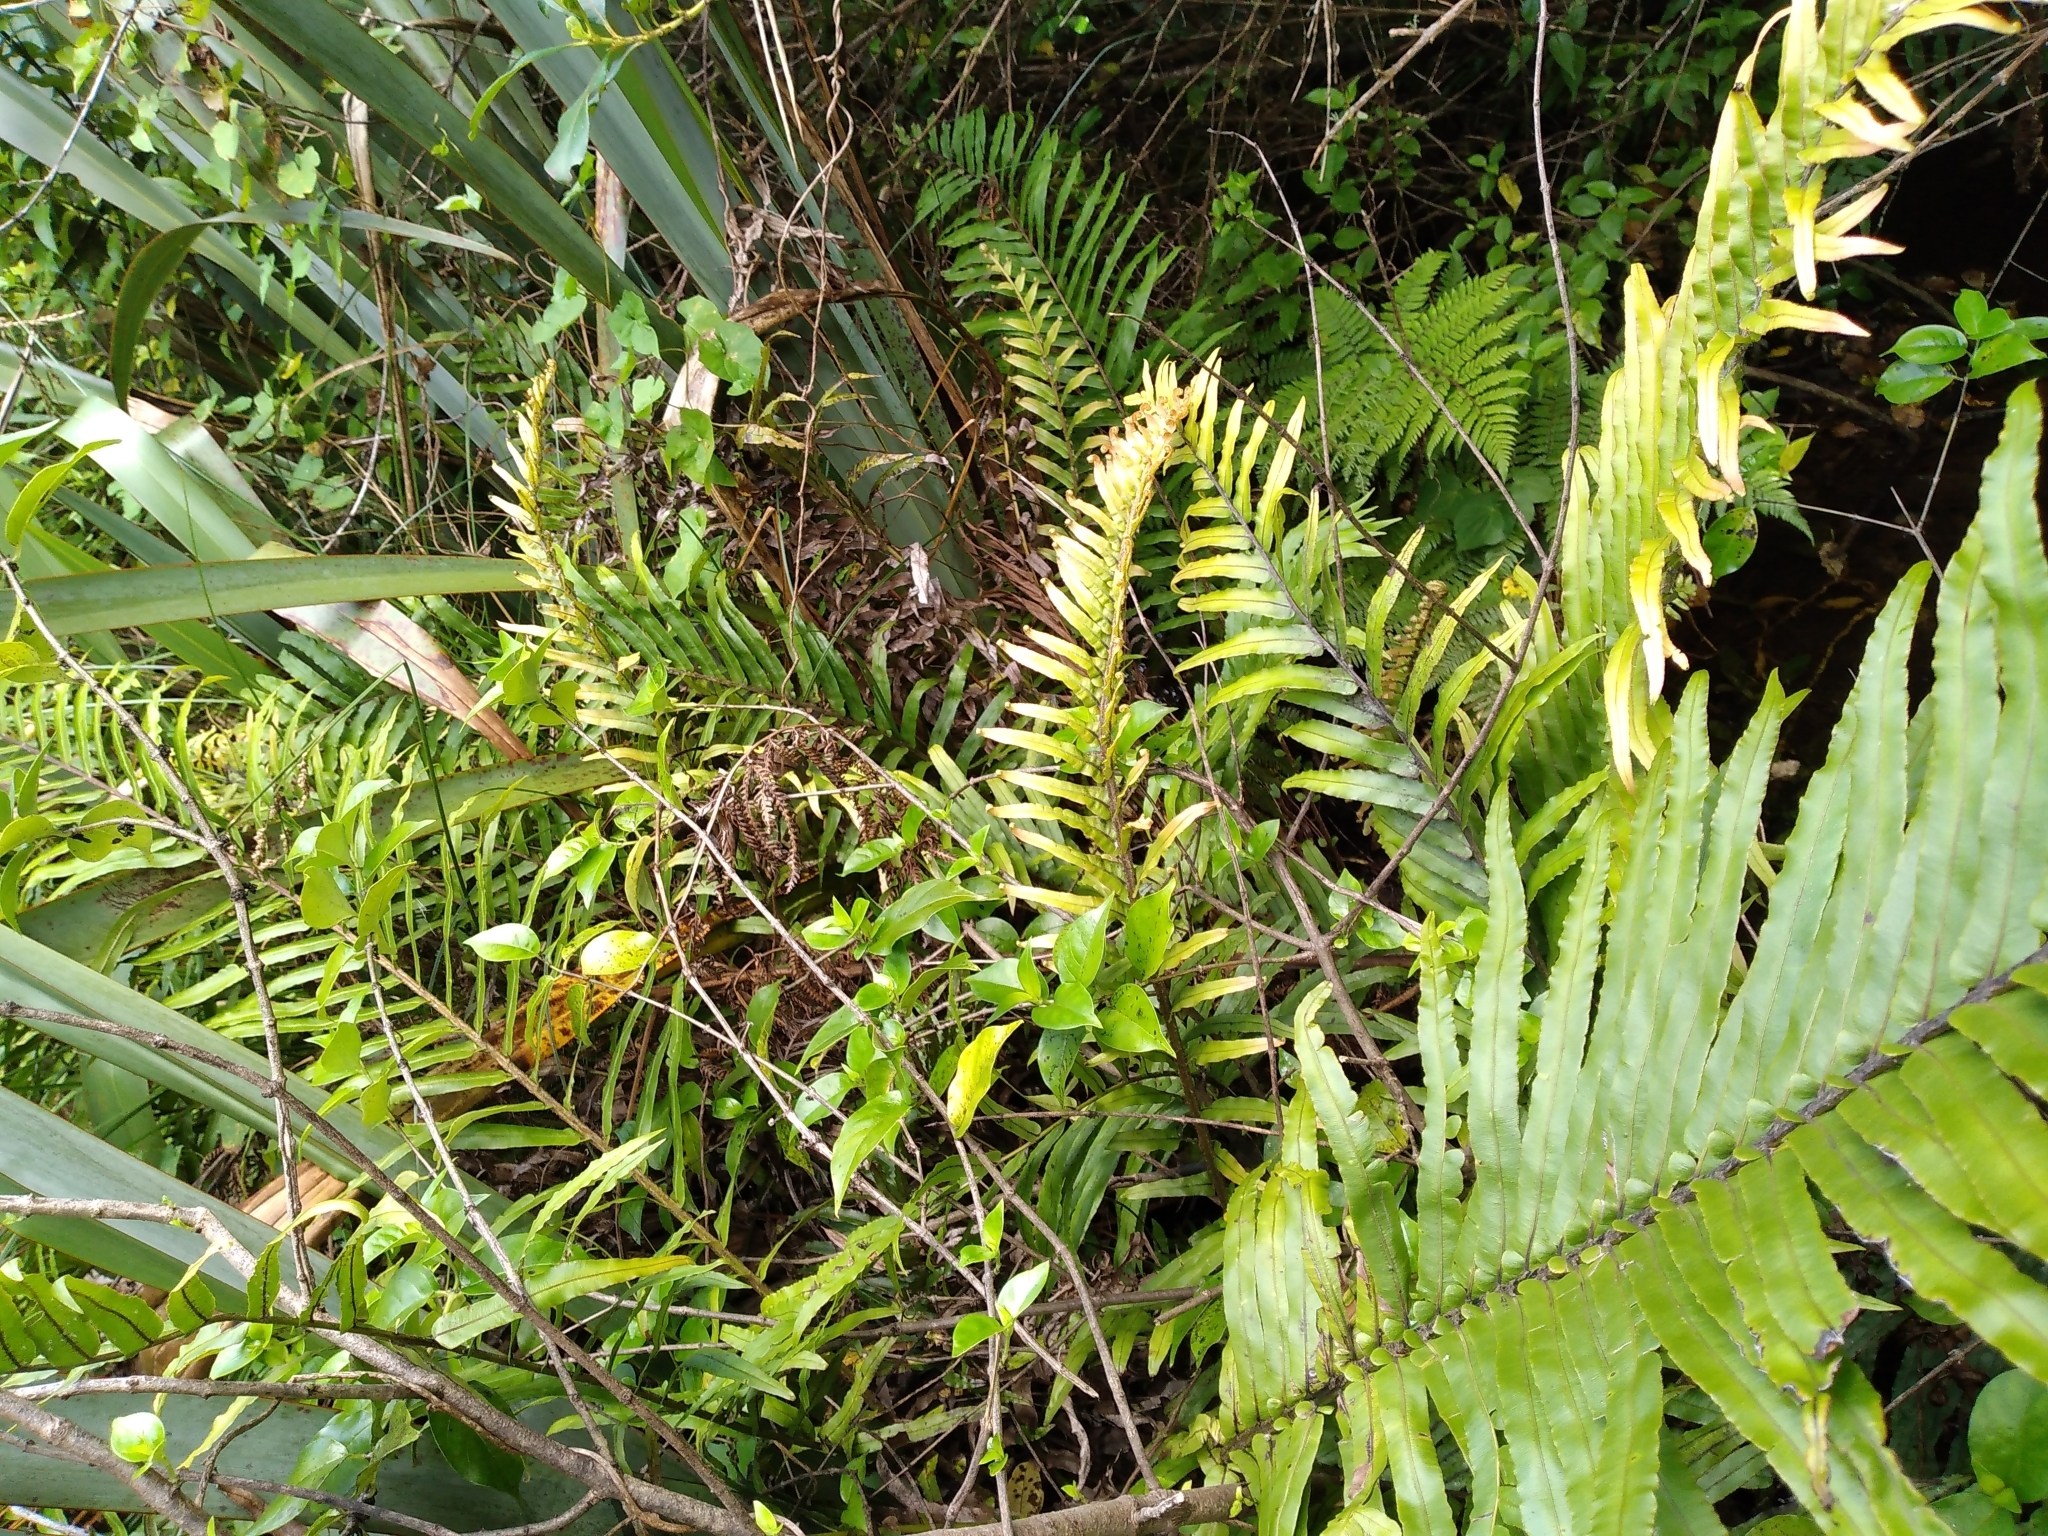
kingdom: Plantae
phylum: Tracheophyta
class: Polypodiopsida
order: Polypodiales
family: Blechnaceae
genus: Parablechnum
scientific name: Parablechnum minus
